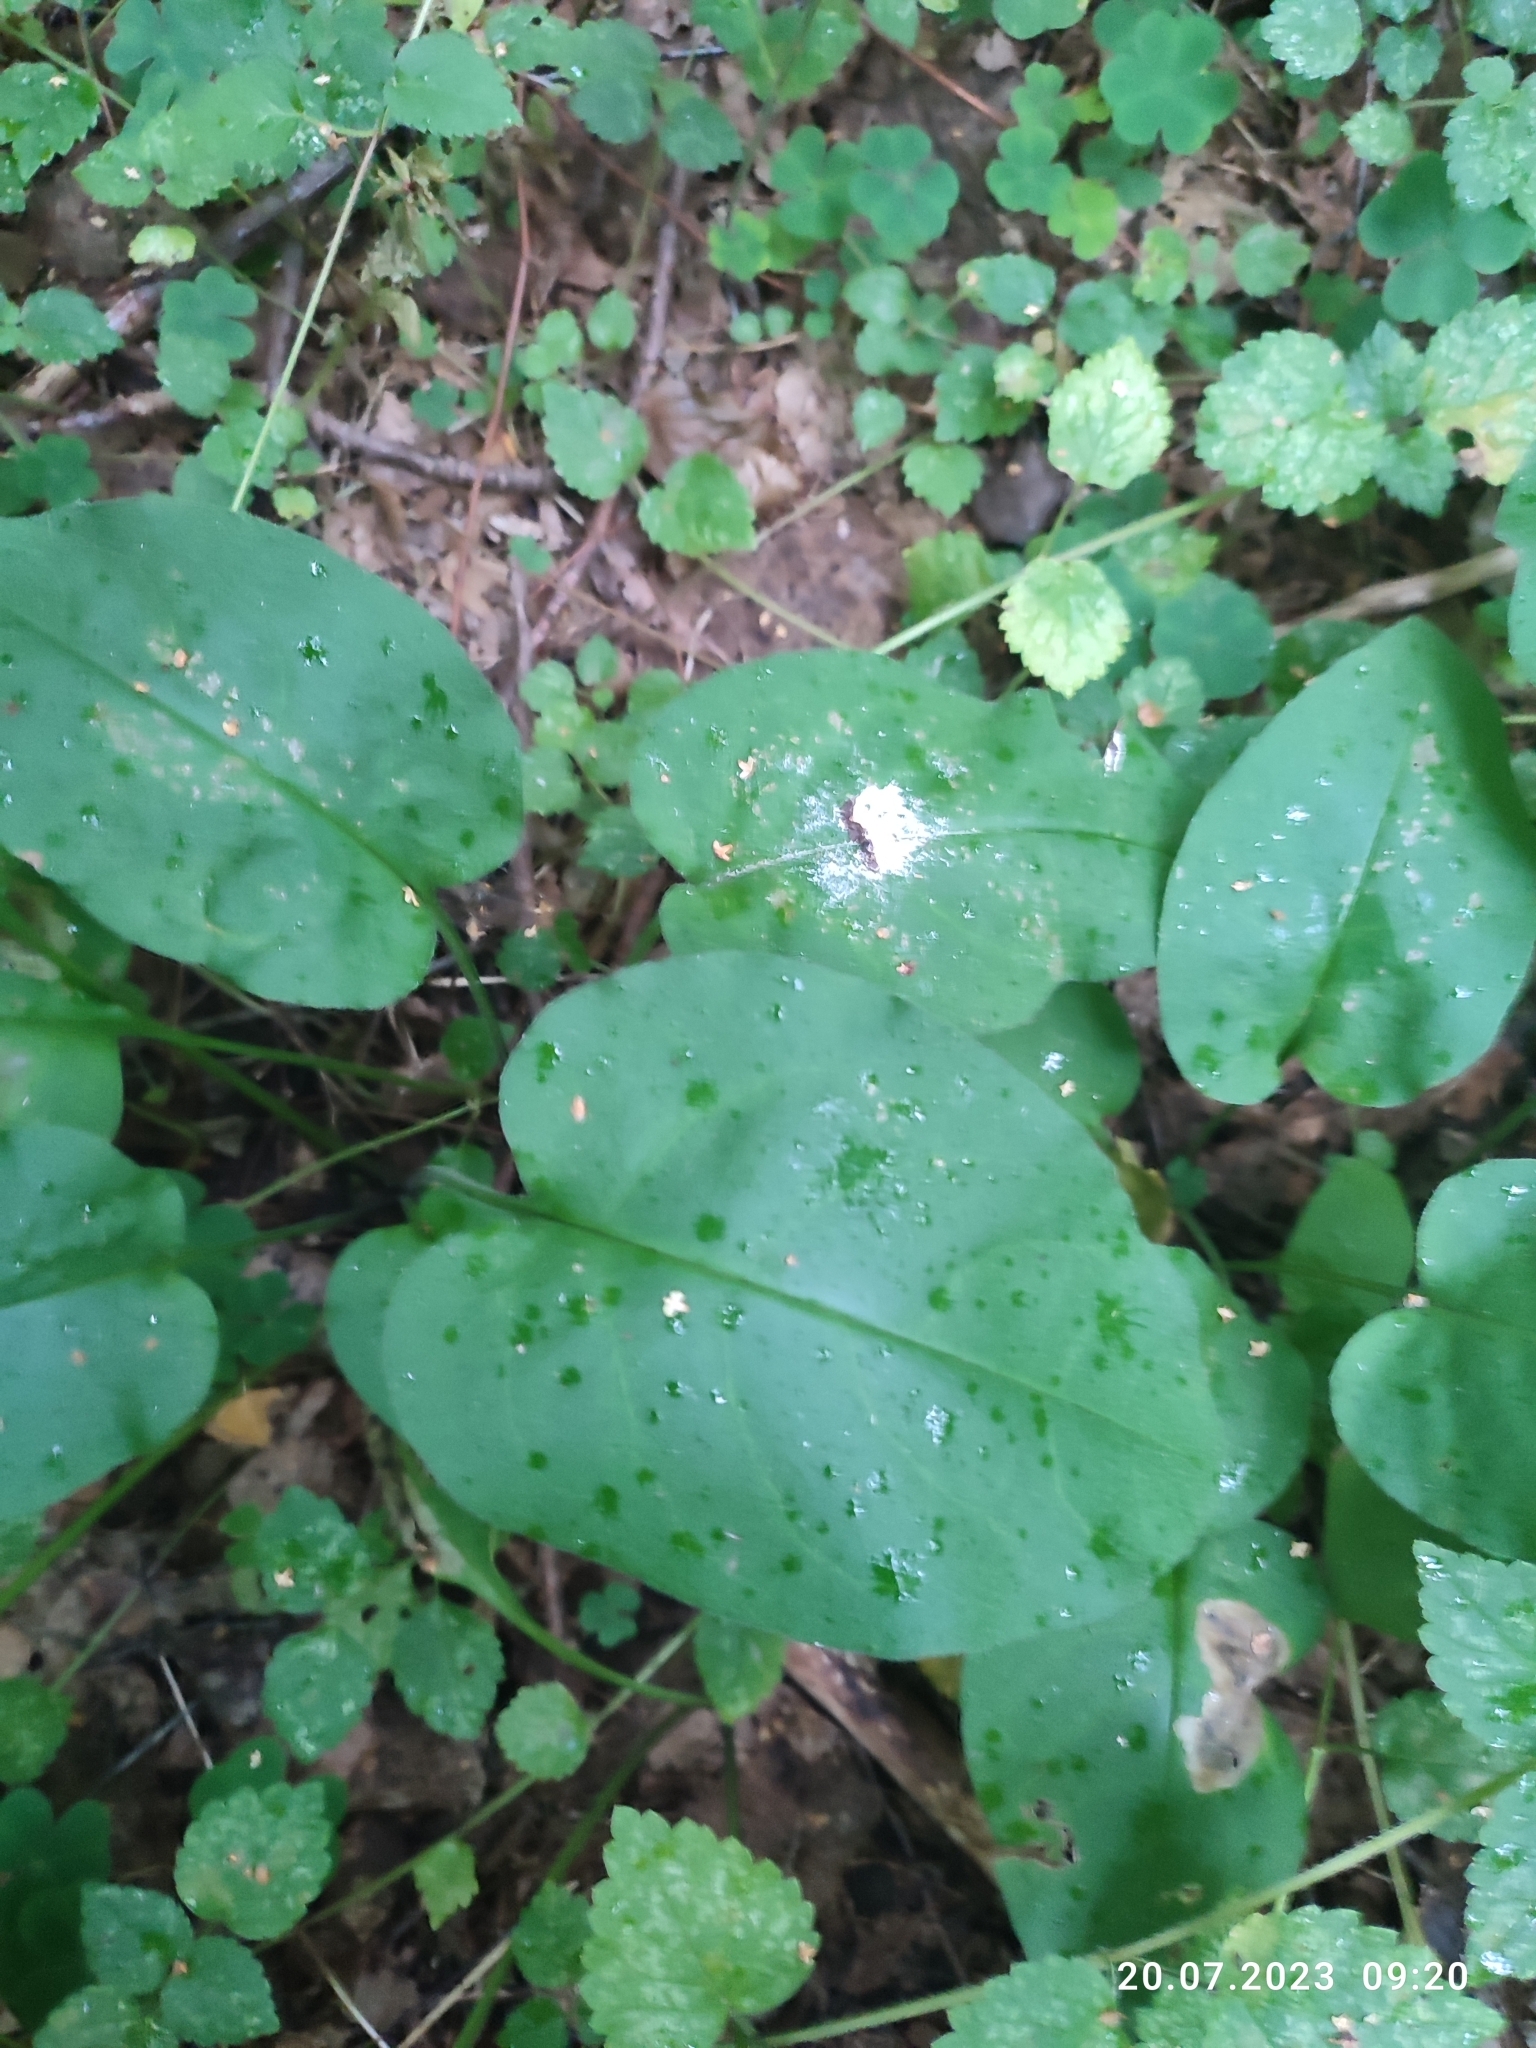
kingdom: Plantae
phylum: Tracheophyta
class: Magnoliopsida
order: Boraginales
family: Boraginaceae
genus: Pulmonaria
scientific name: Pulmonaria obscura
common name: Suffolk lungwort
